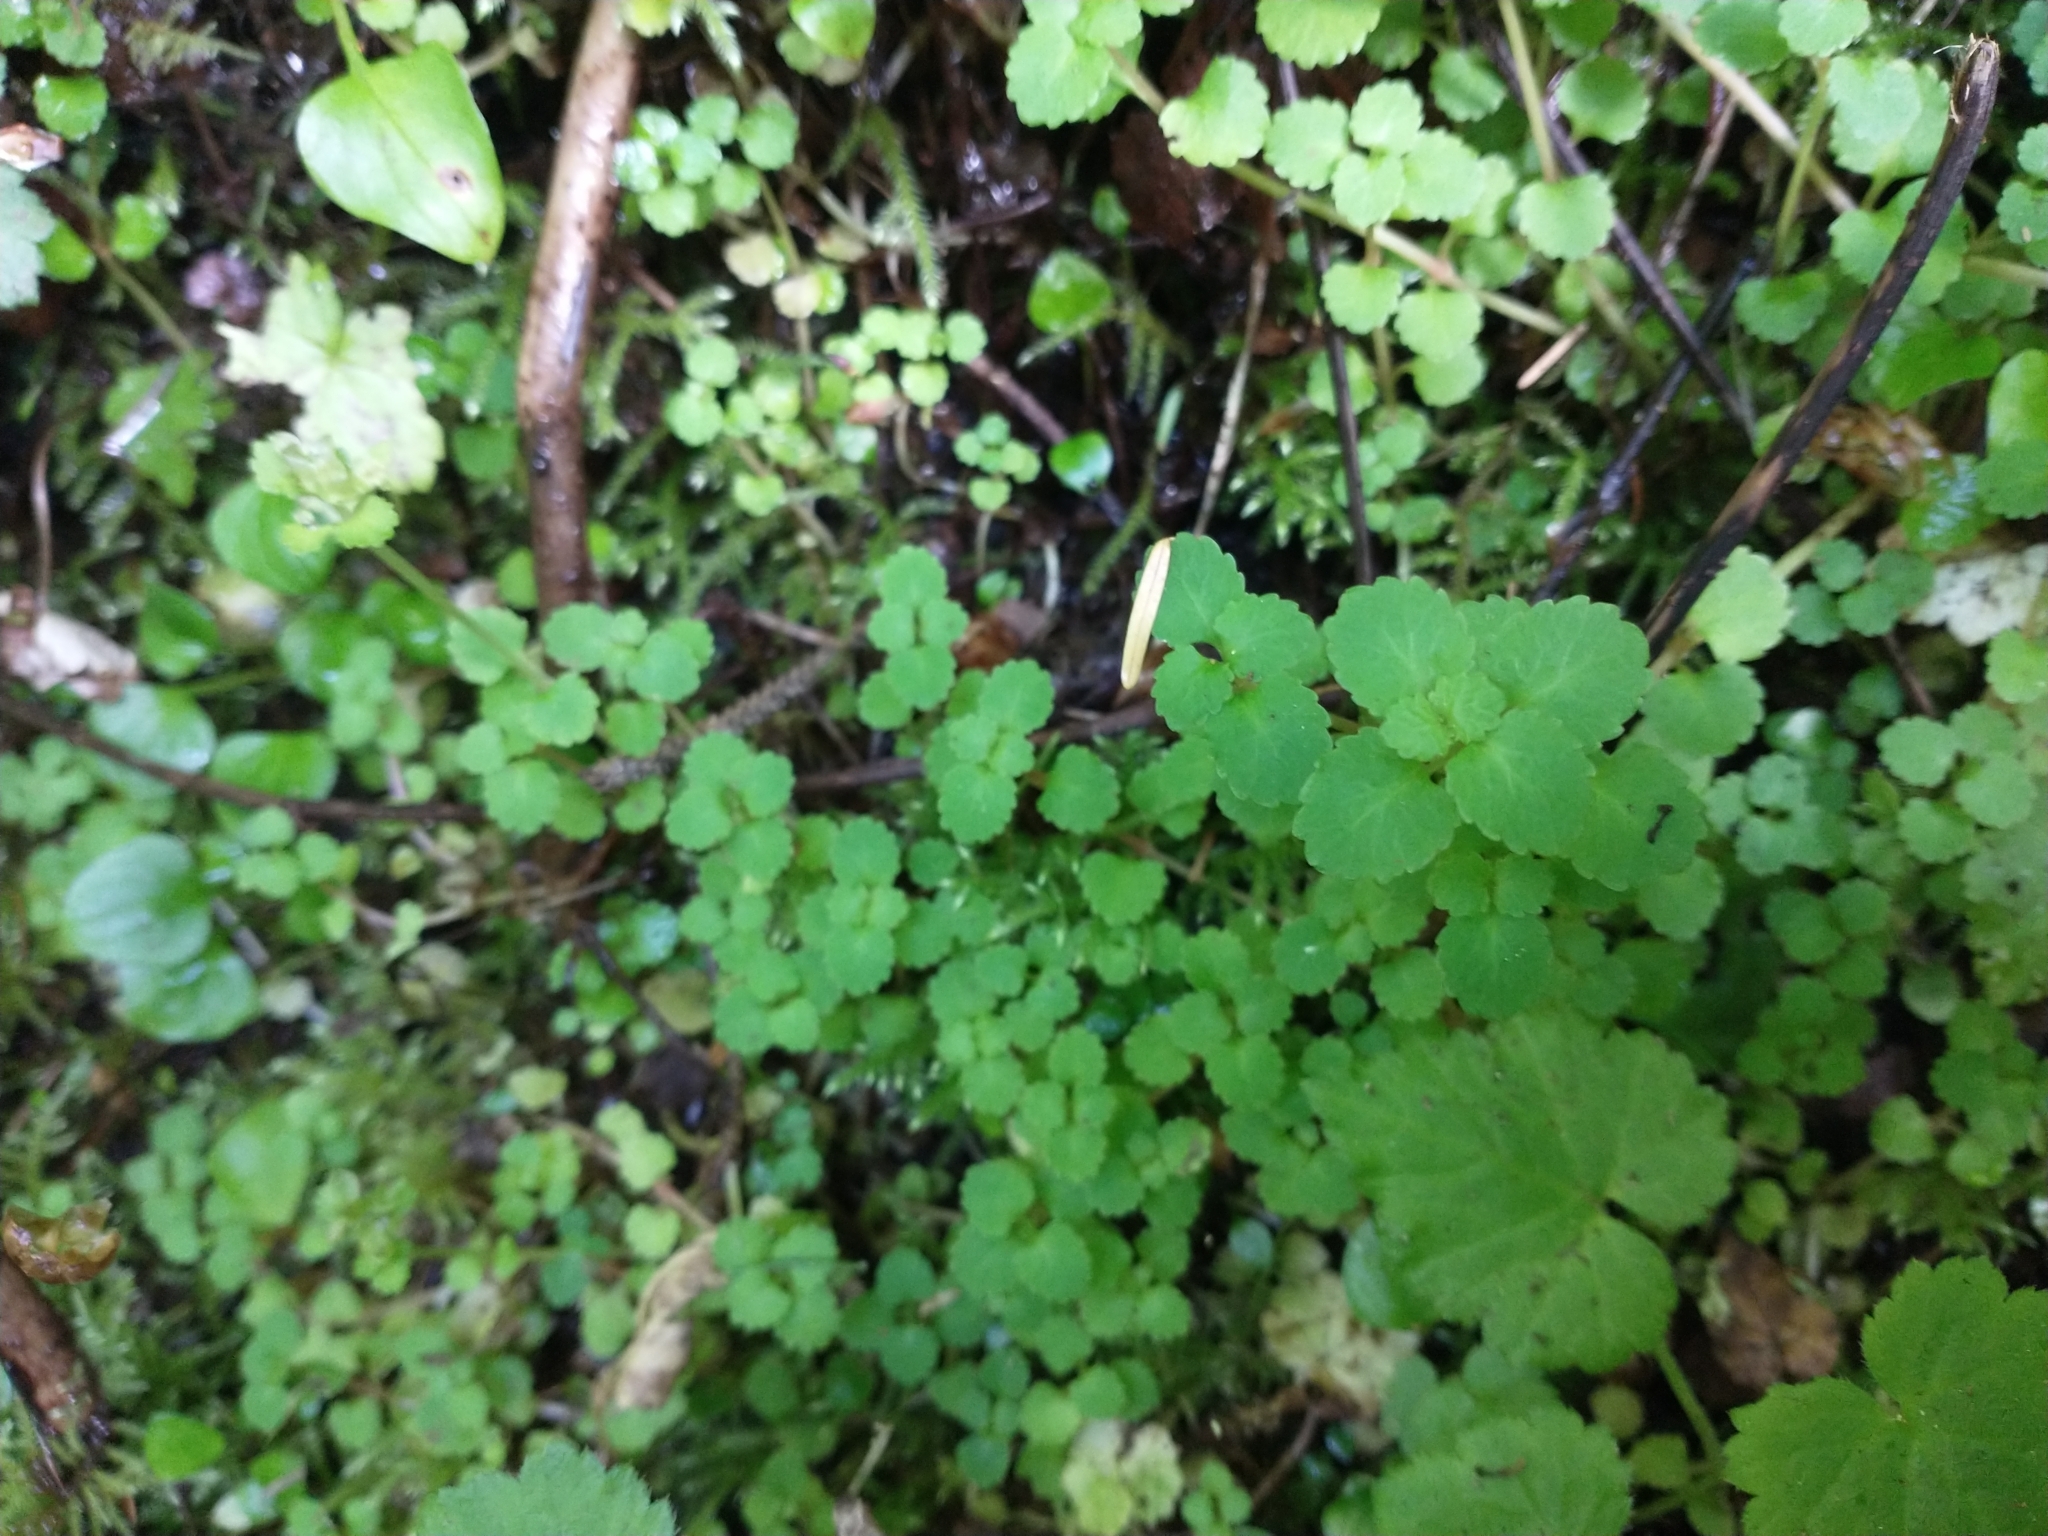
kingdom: Plantae
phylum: Tracheophyta
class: Magnoliopsida
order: Saxifragales
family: Saxifragaceae
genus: Chrysosplenium
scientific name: Chrysosplenium glechomifolium
